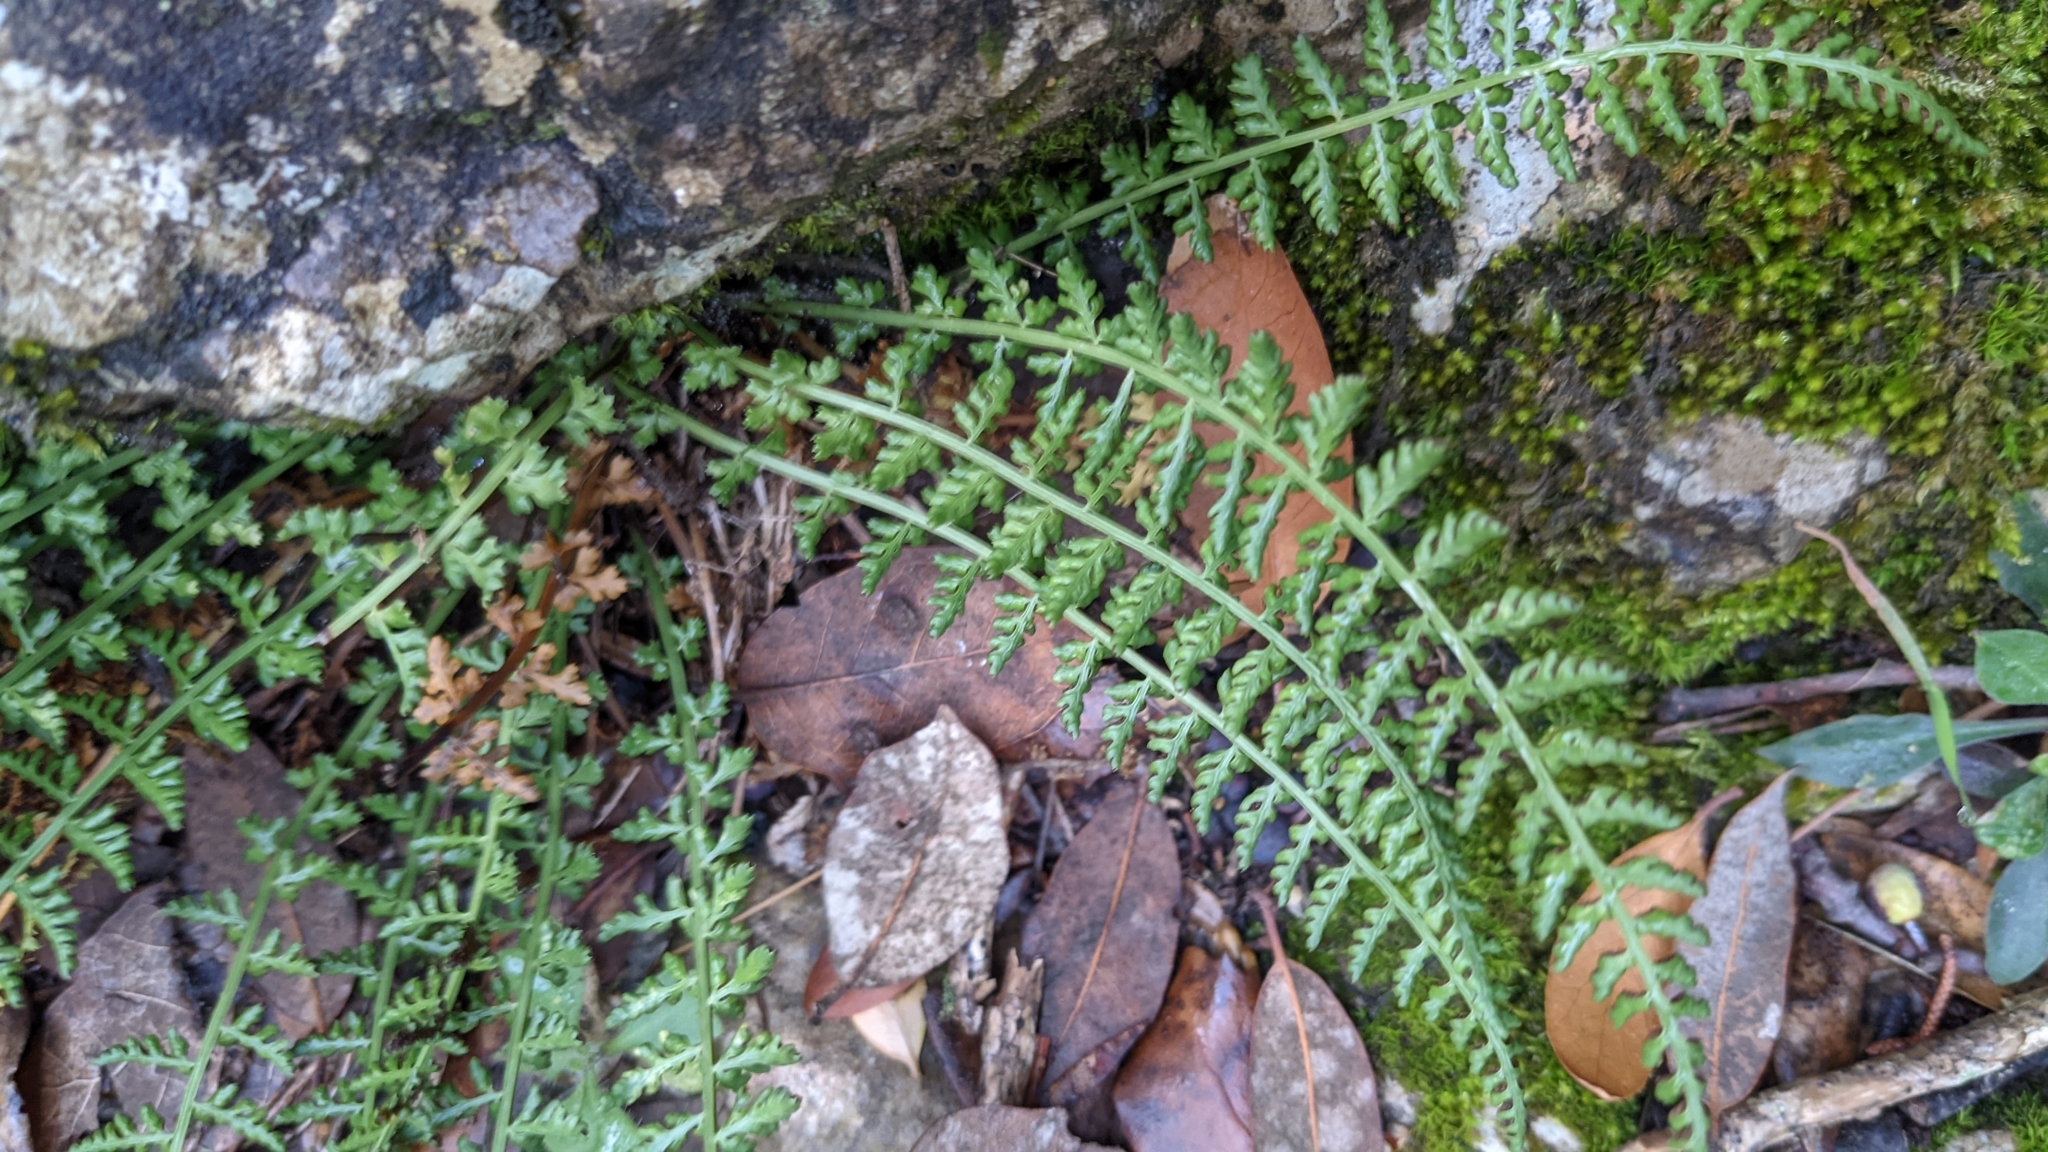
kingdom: Plantae
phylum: Tracheophyta
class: Polypodiopsida
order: Polypodiales
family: Aspleniaceae
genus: Asplenium
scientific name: Asplenium fontanum
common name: Fountain spleenwort
